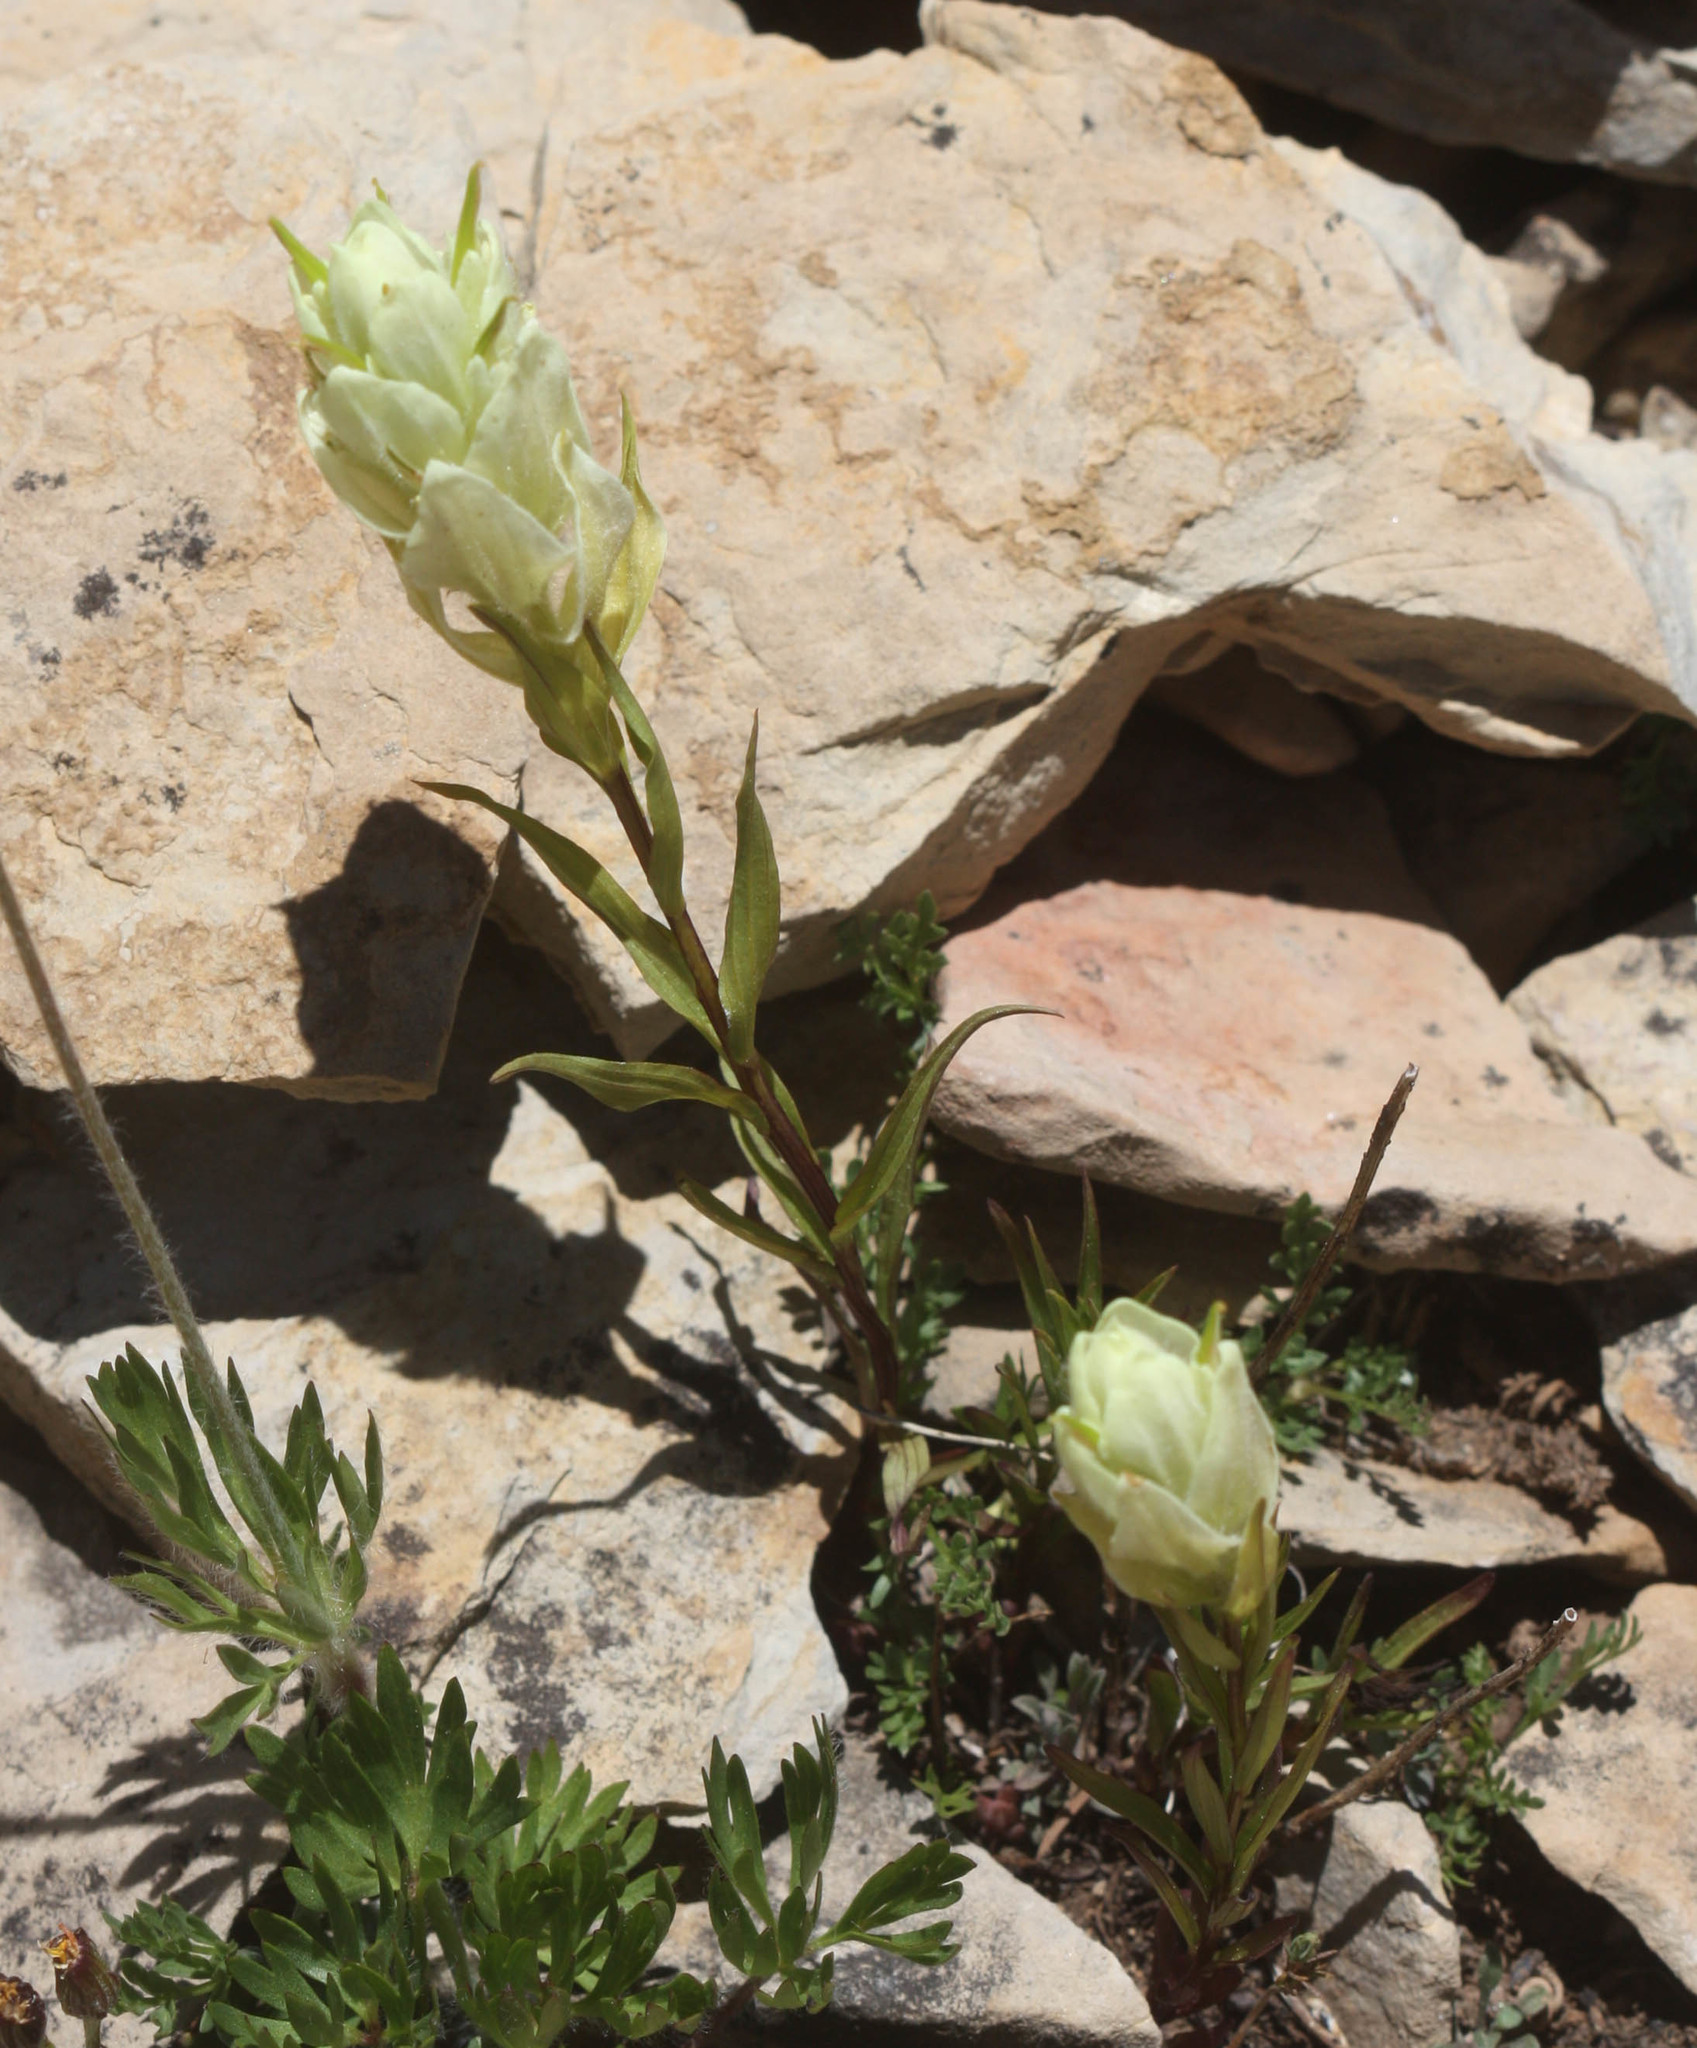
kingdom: Plantae
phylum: Tracheophyta
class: Magnoliopsida
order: Lamiales
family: Orobanchaceae
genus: Castilleja
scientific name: Castilleja occidentalis
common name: Western paintbrush
